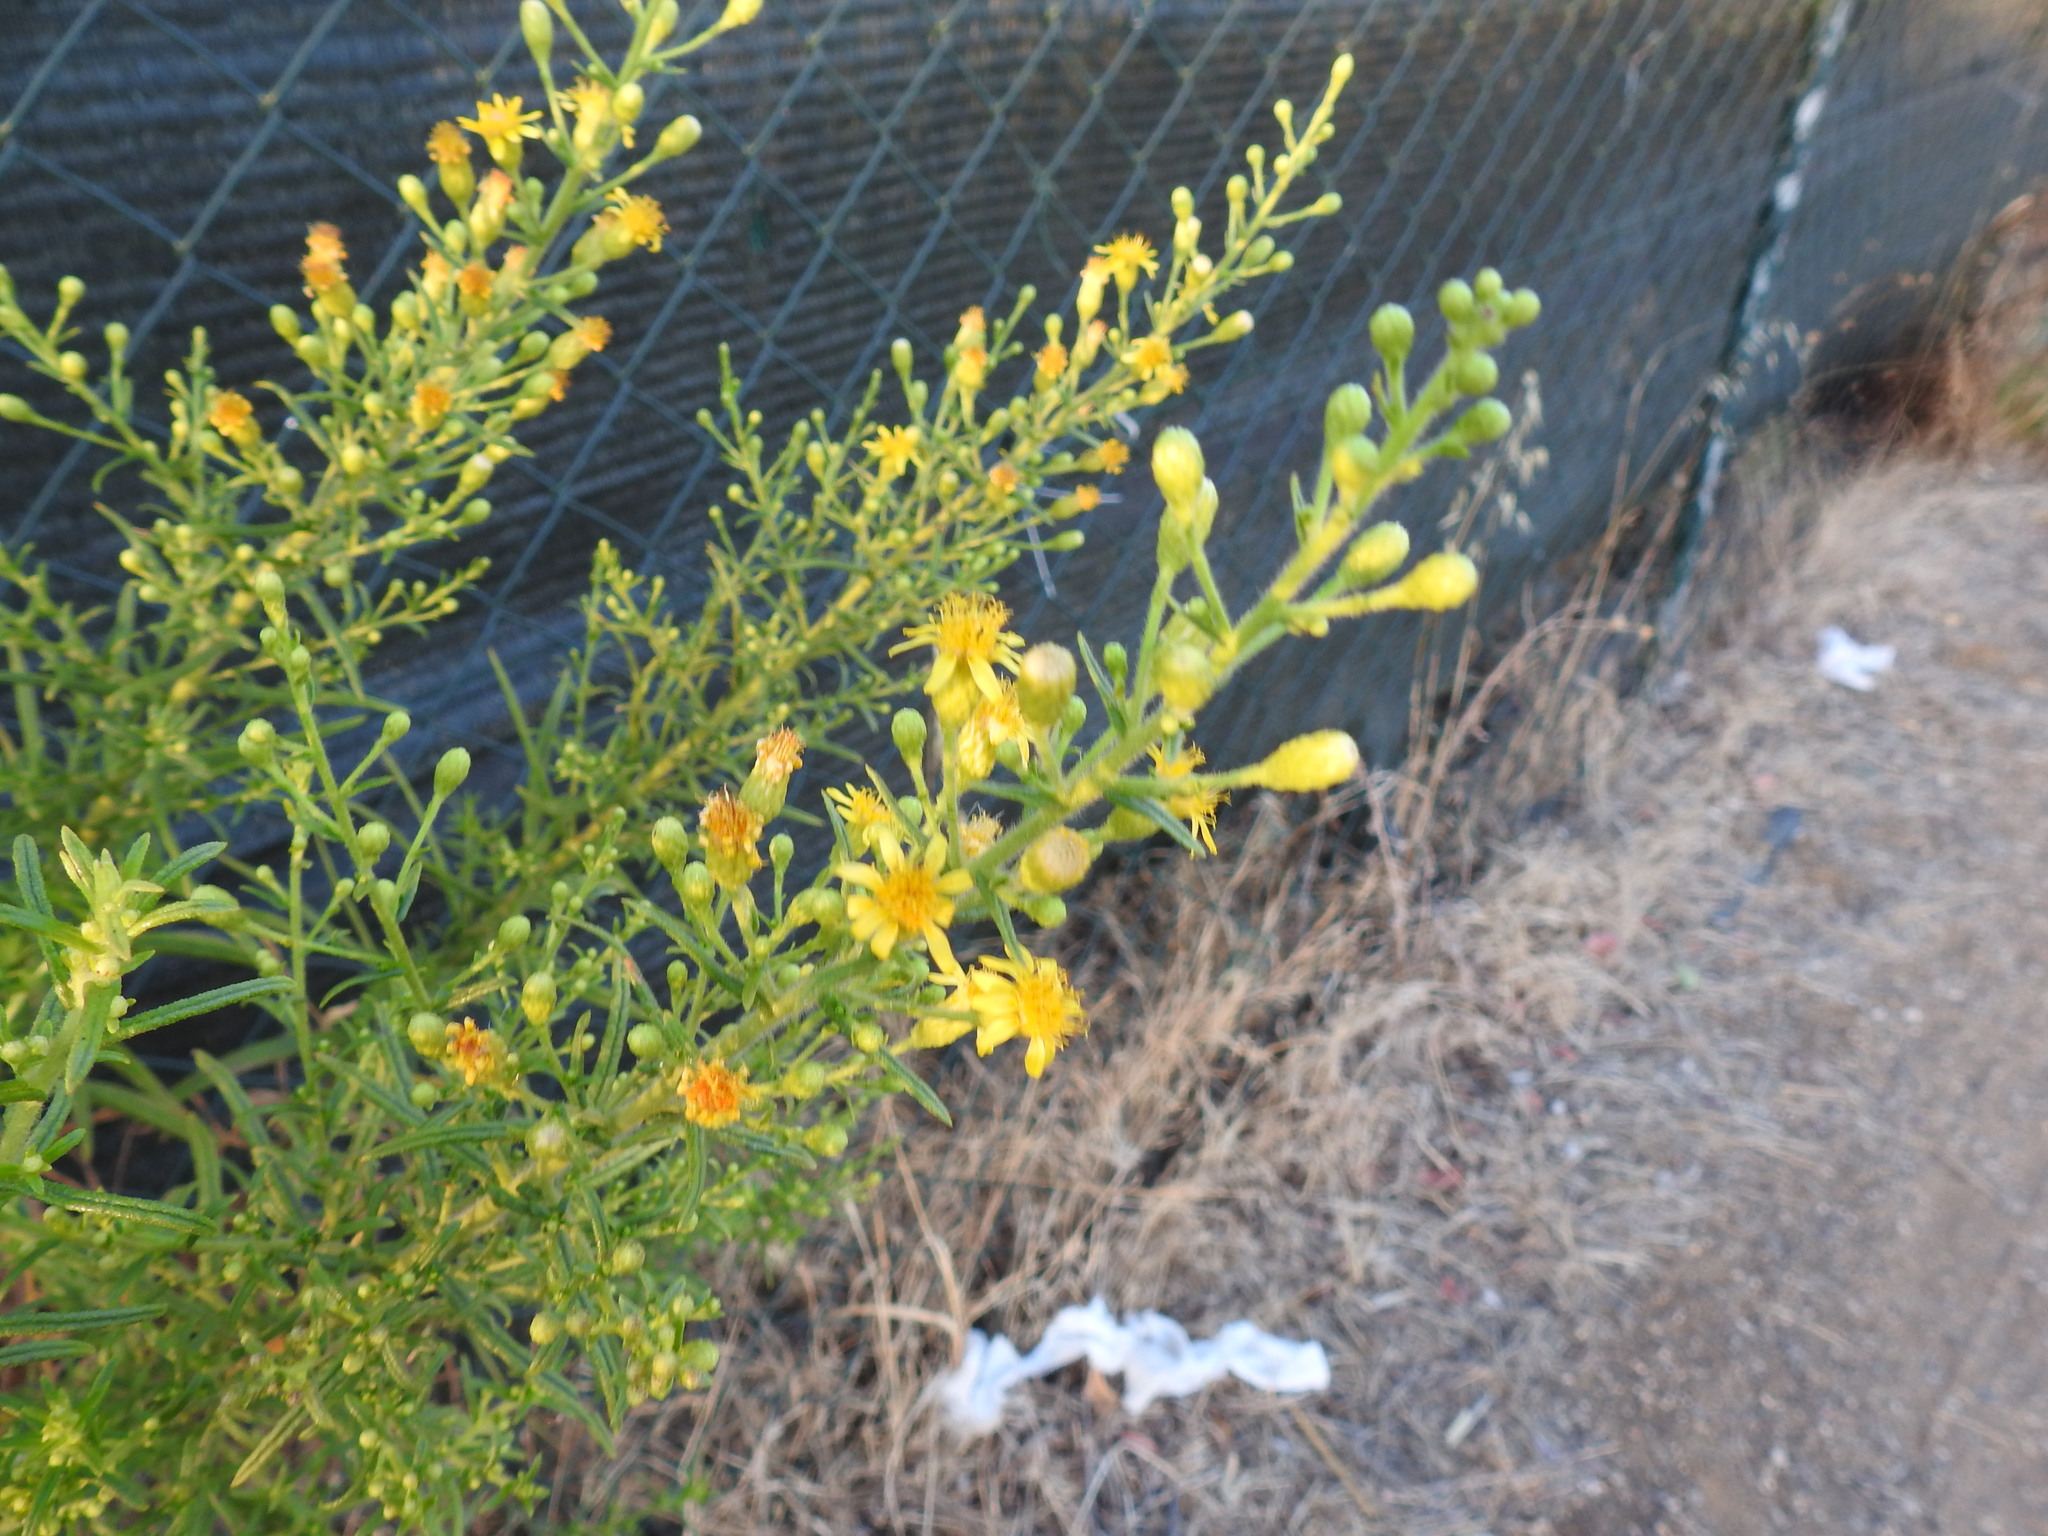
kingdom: Plantae
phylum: Tracheophyta
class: Magnoliopsida
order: Asterales
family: Asteraceae
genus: Dittrichia
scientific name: Dittrichia viscosa
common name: Woody fleabane
